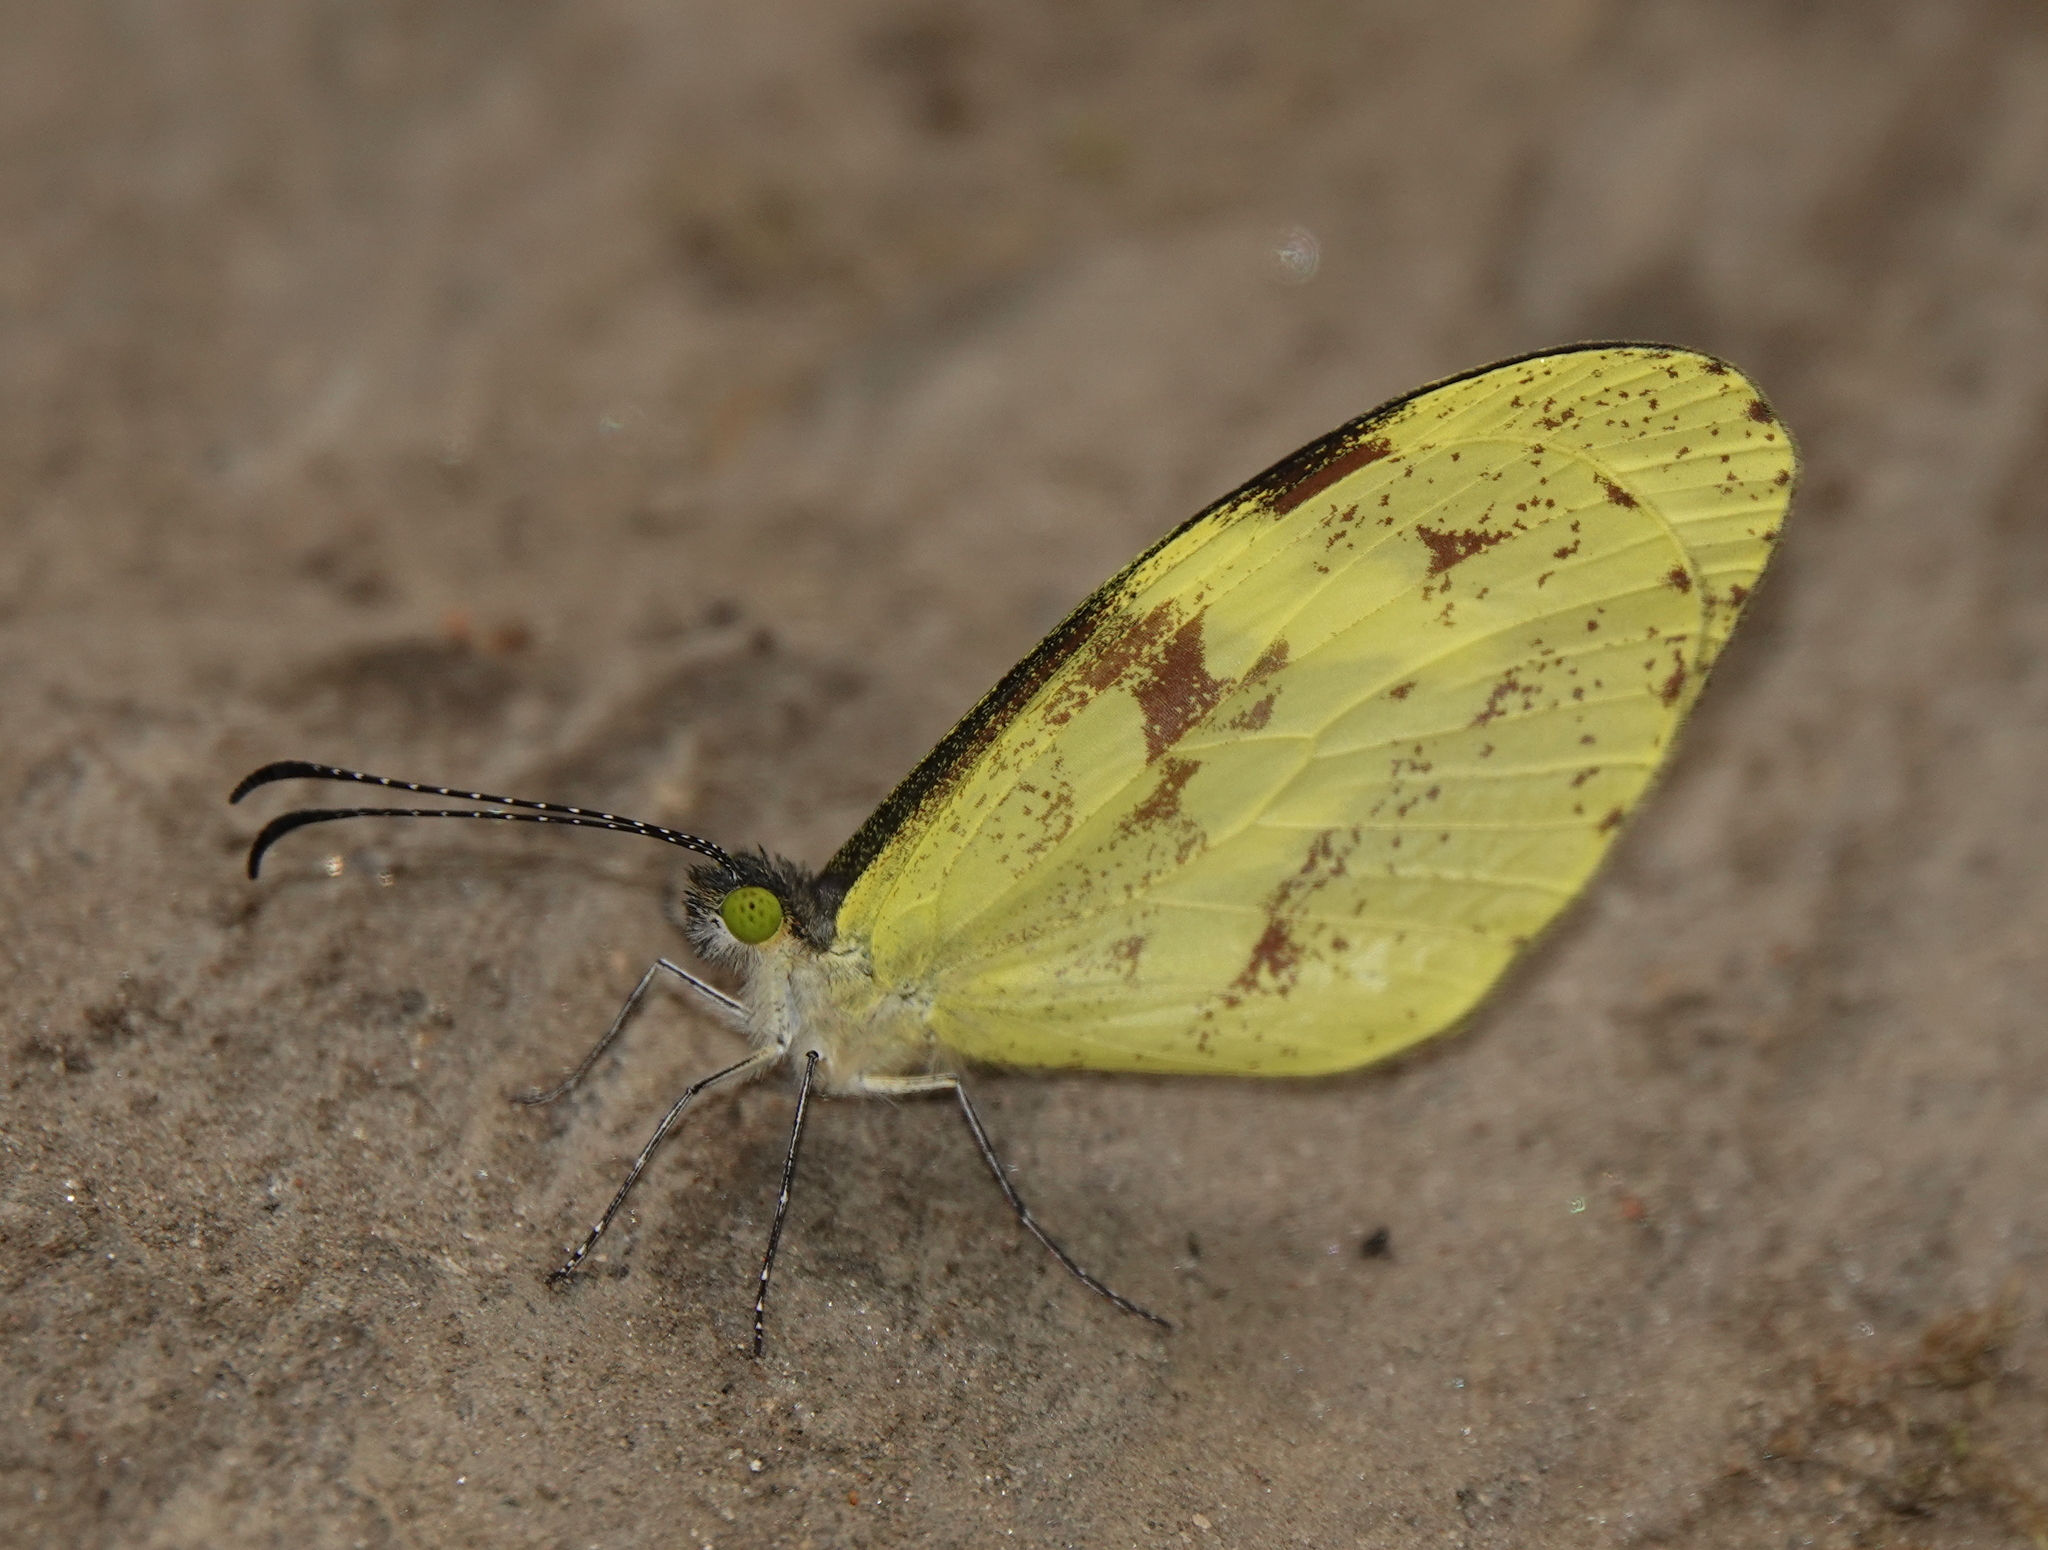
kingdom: Animalia
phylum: Arthropoda
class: Insecta
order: Lepidoptera
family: Pieridae
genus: Dismorphia
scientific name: Dismorphia medora
